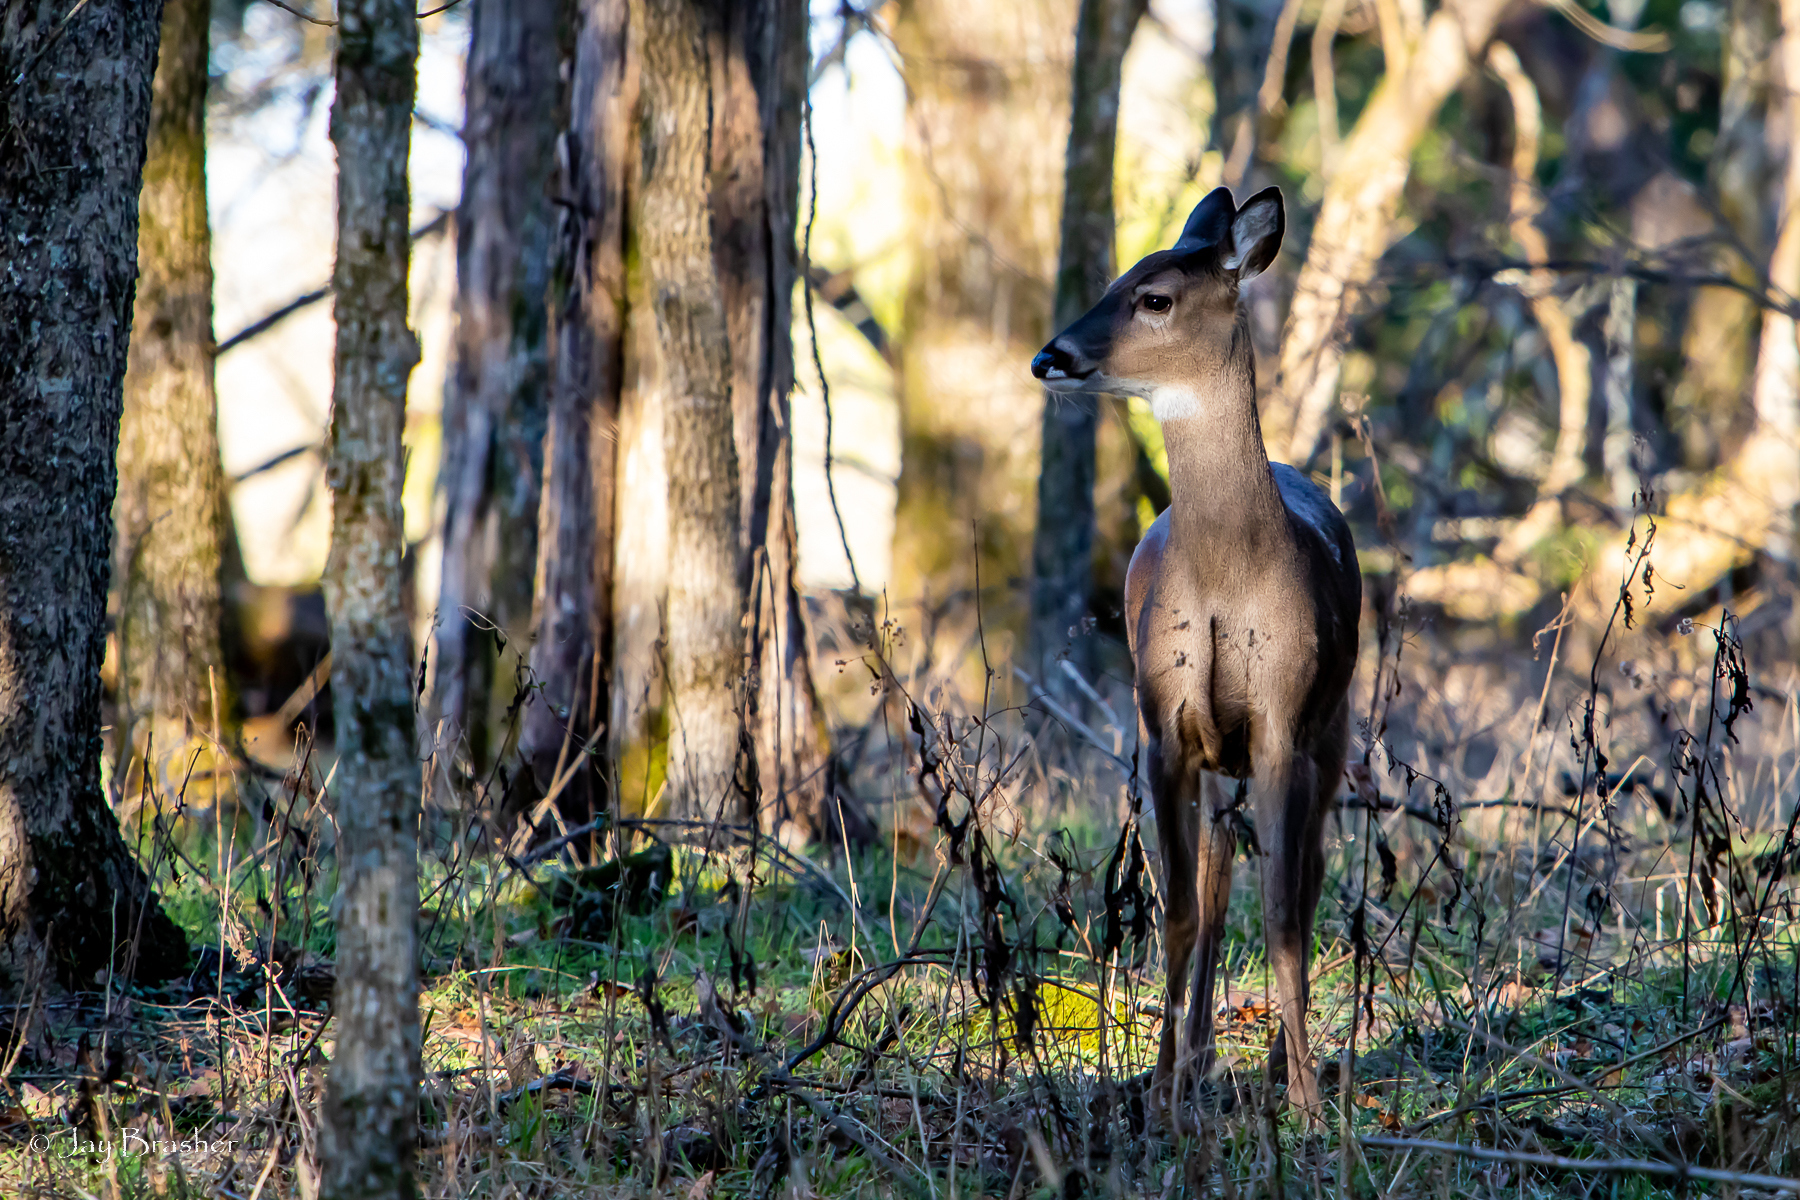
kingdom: Animalia
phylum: Chordata
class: Mammalia
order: Artiodactyla
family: Cervidae
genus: Odocoileus
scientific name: Odocoileus virginianus
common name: White-tailed deer
